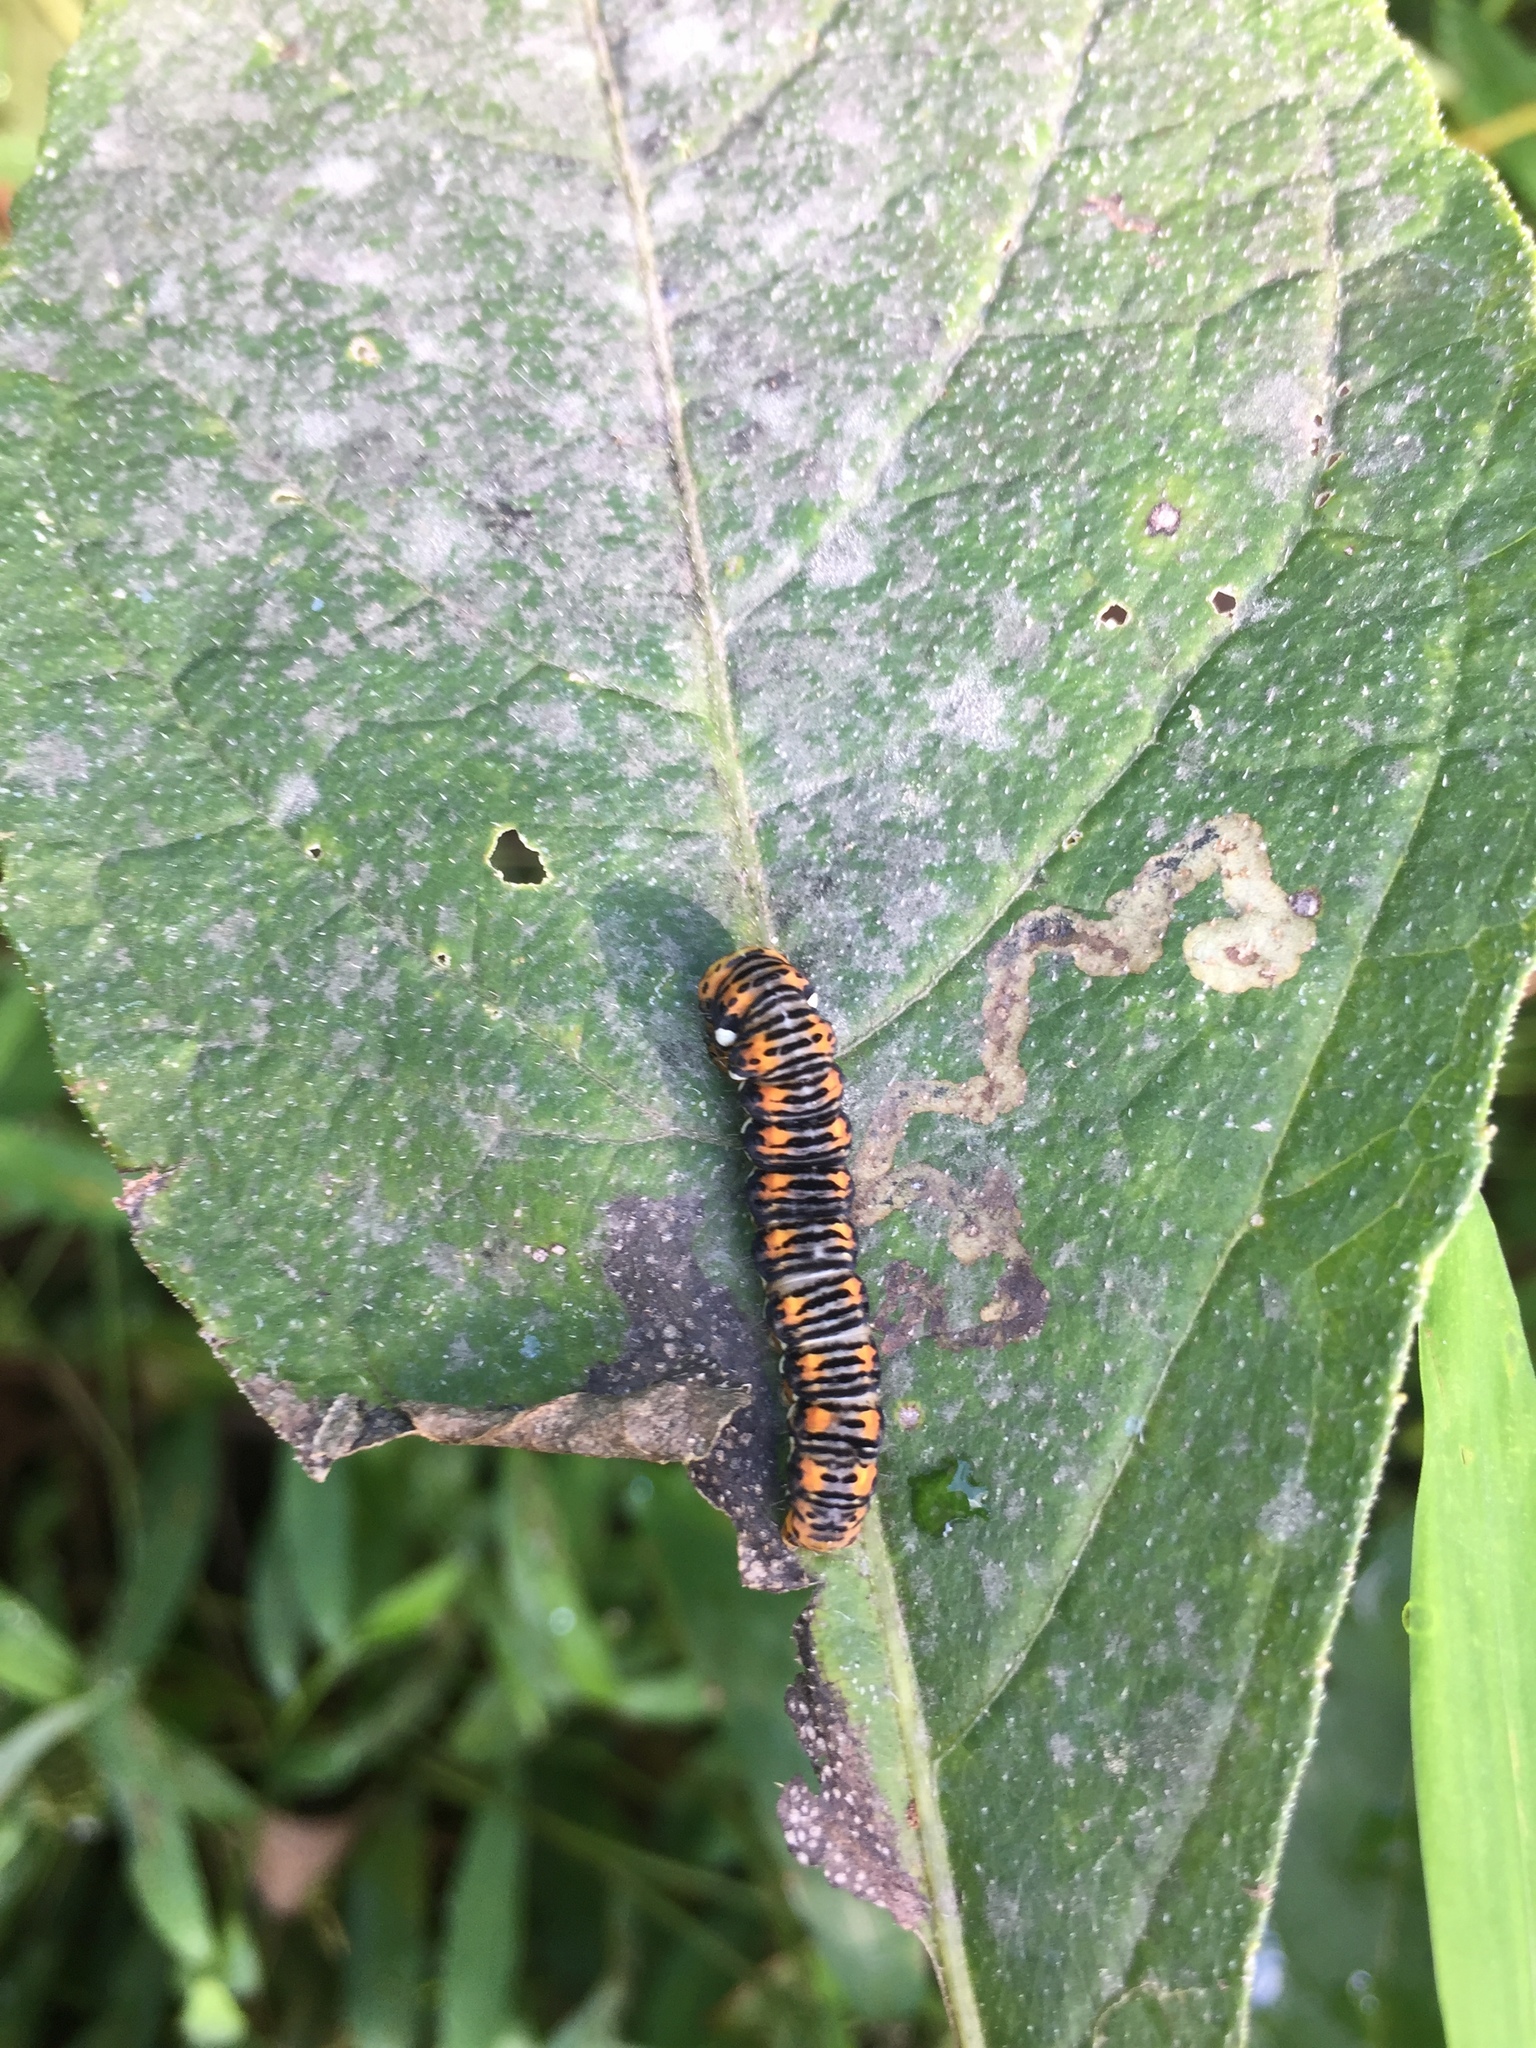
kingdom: Animalia
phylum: Arthropoda
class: Insecta
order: Lepidoptera
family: Noctuidae
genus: Basilodes
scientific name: Basilodes pepita
